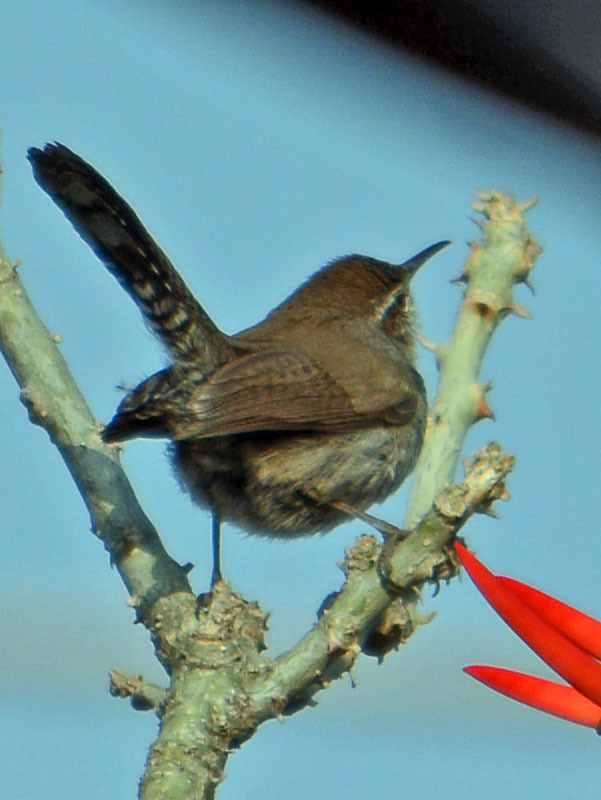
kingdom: Animalia
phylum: Chordata
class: Aves
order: Passeriformes
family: Troglodytidae
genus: Thryomanes
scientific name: Thryomanes bewickii
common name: Bewick's wren
